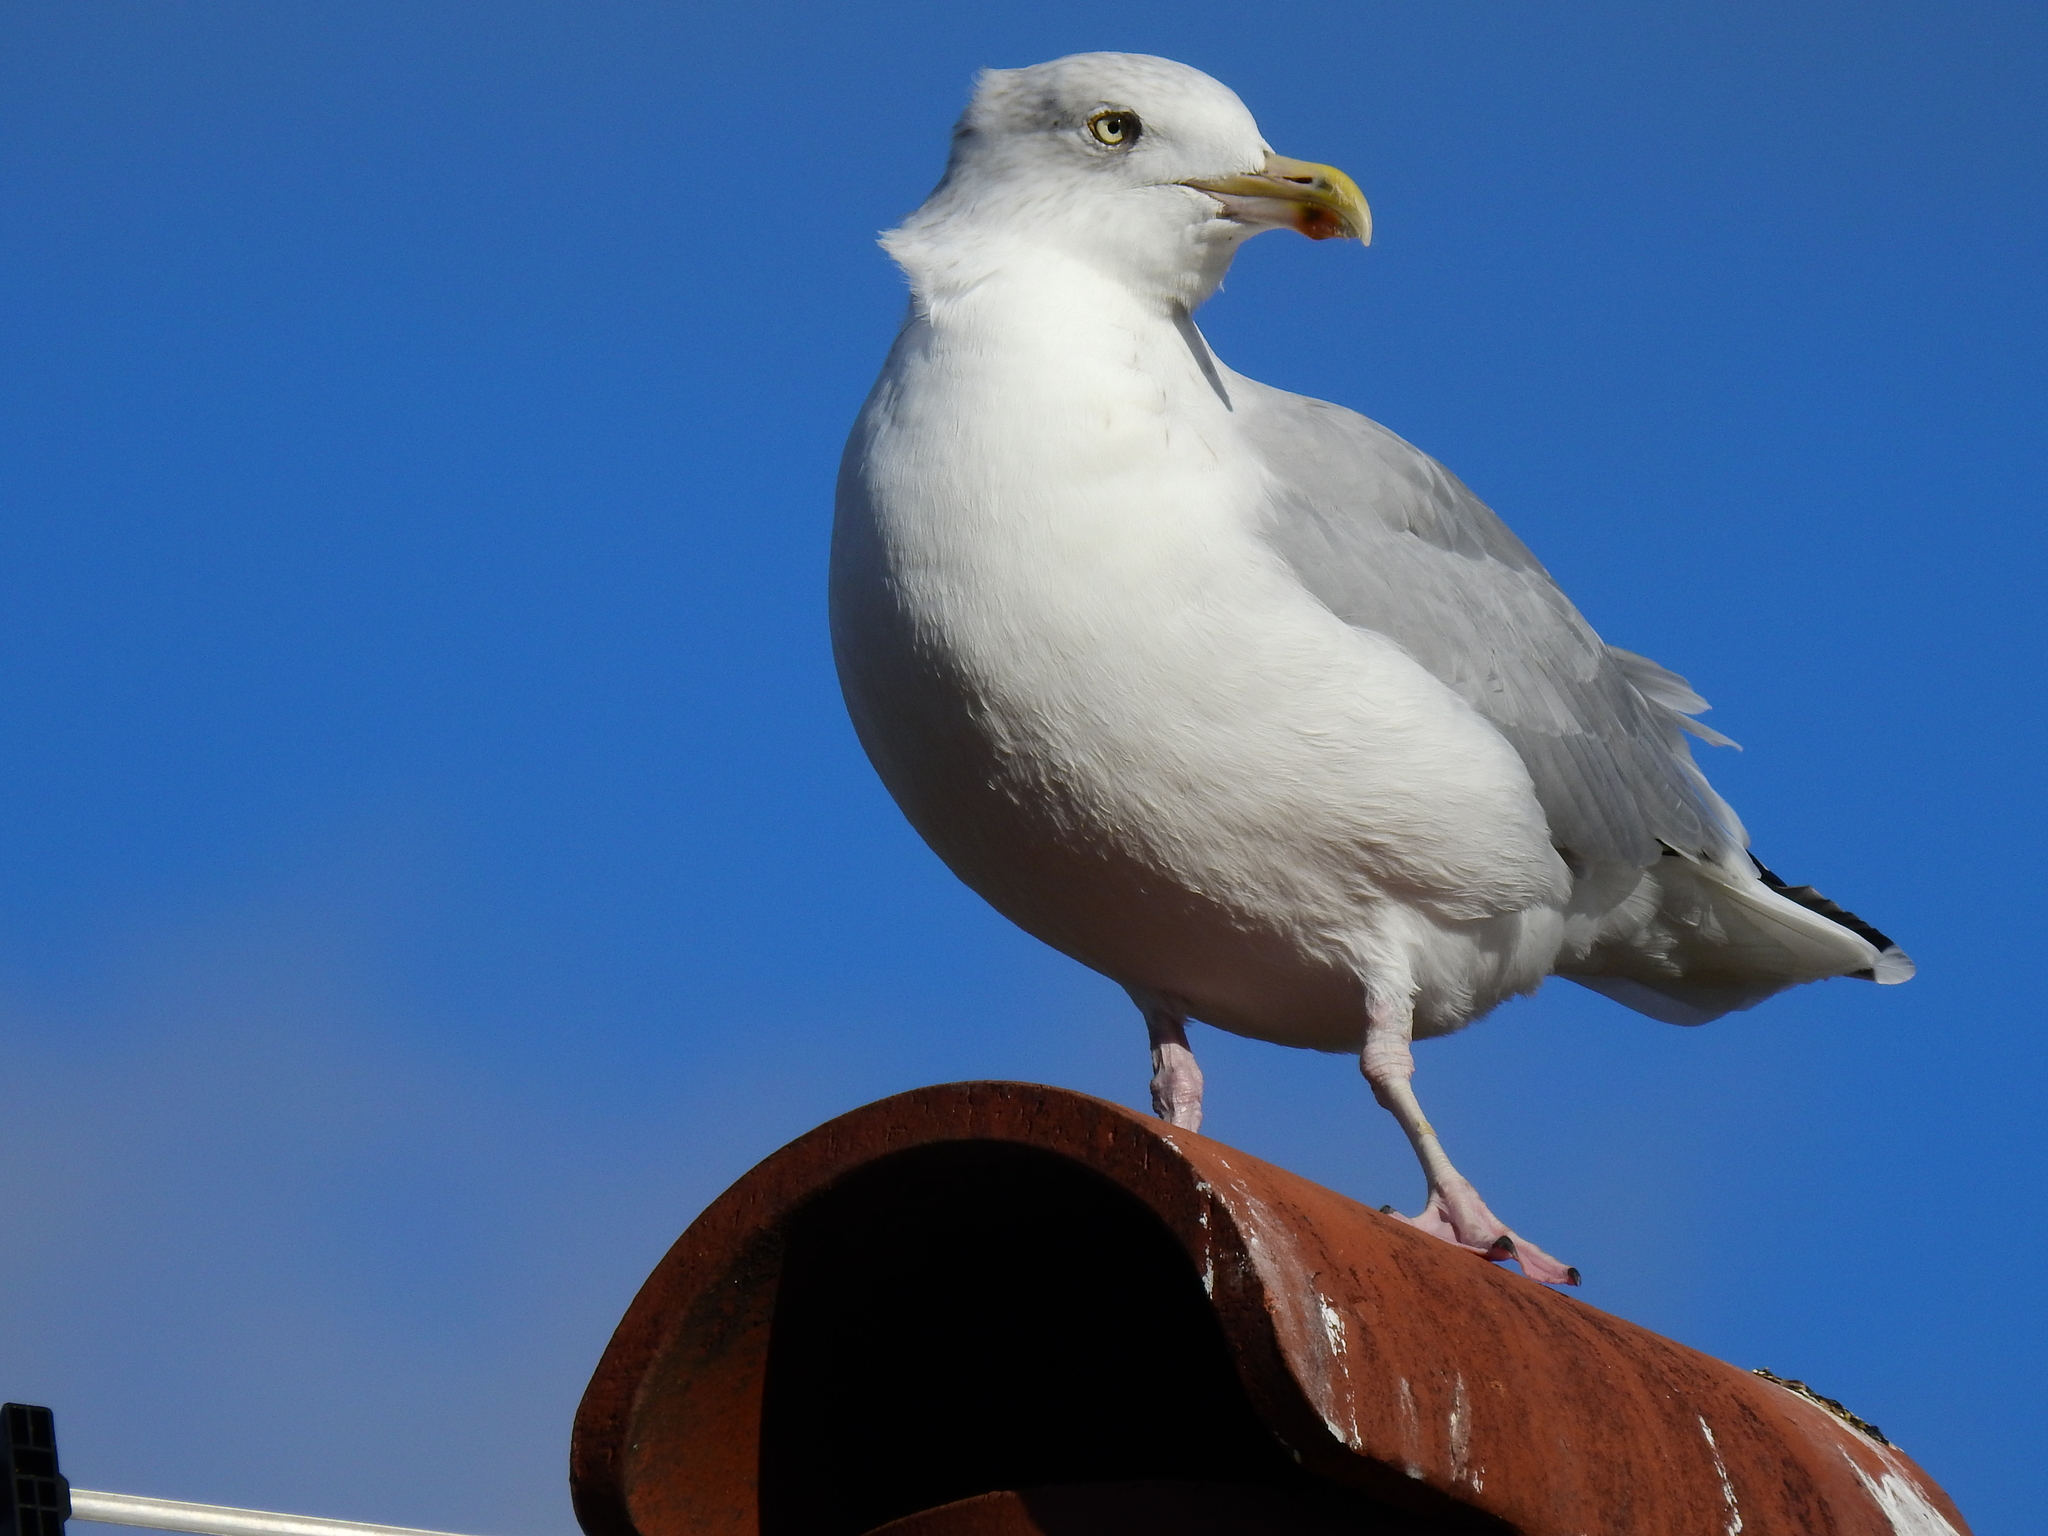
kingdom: Animalia
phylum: Chordata
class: Aves
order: Charadriiformes
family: Laridae
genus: Larus
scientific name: Larus argentatus
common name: Herring gull
